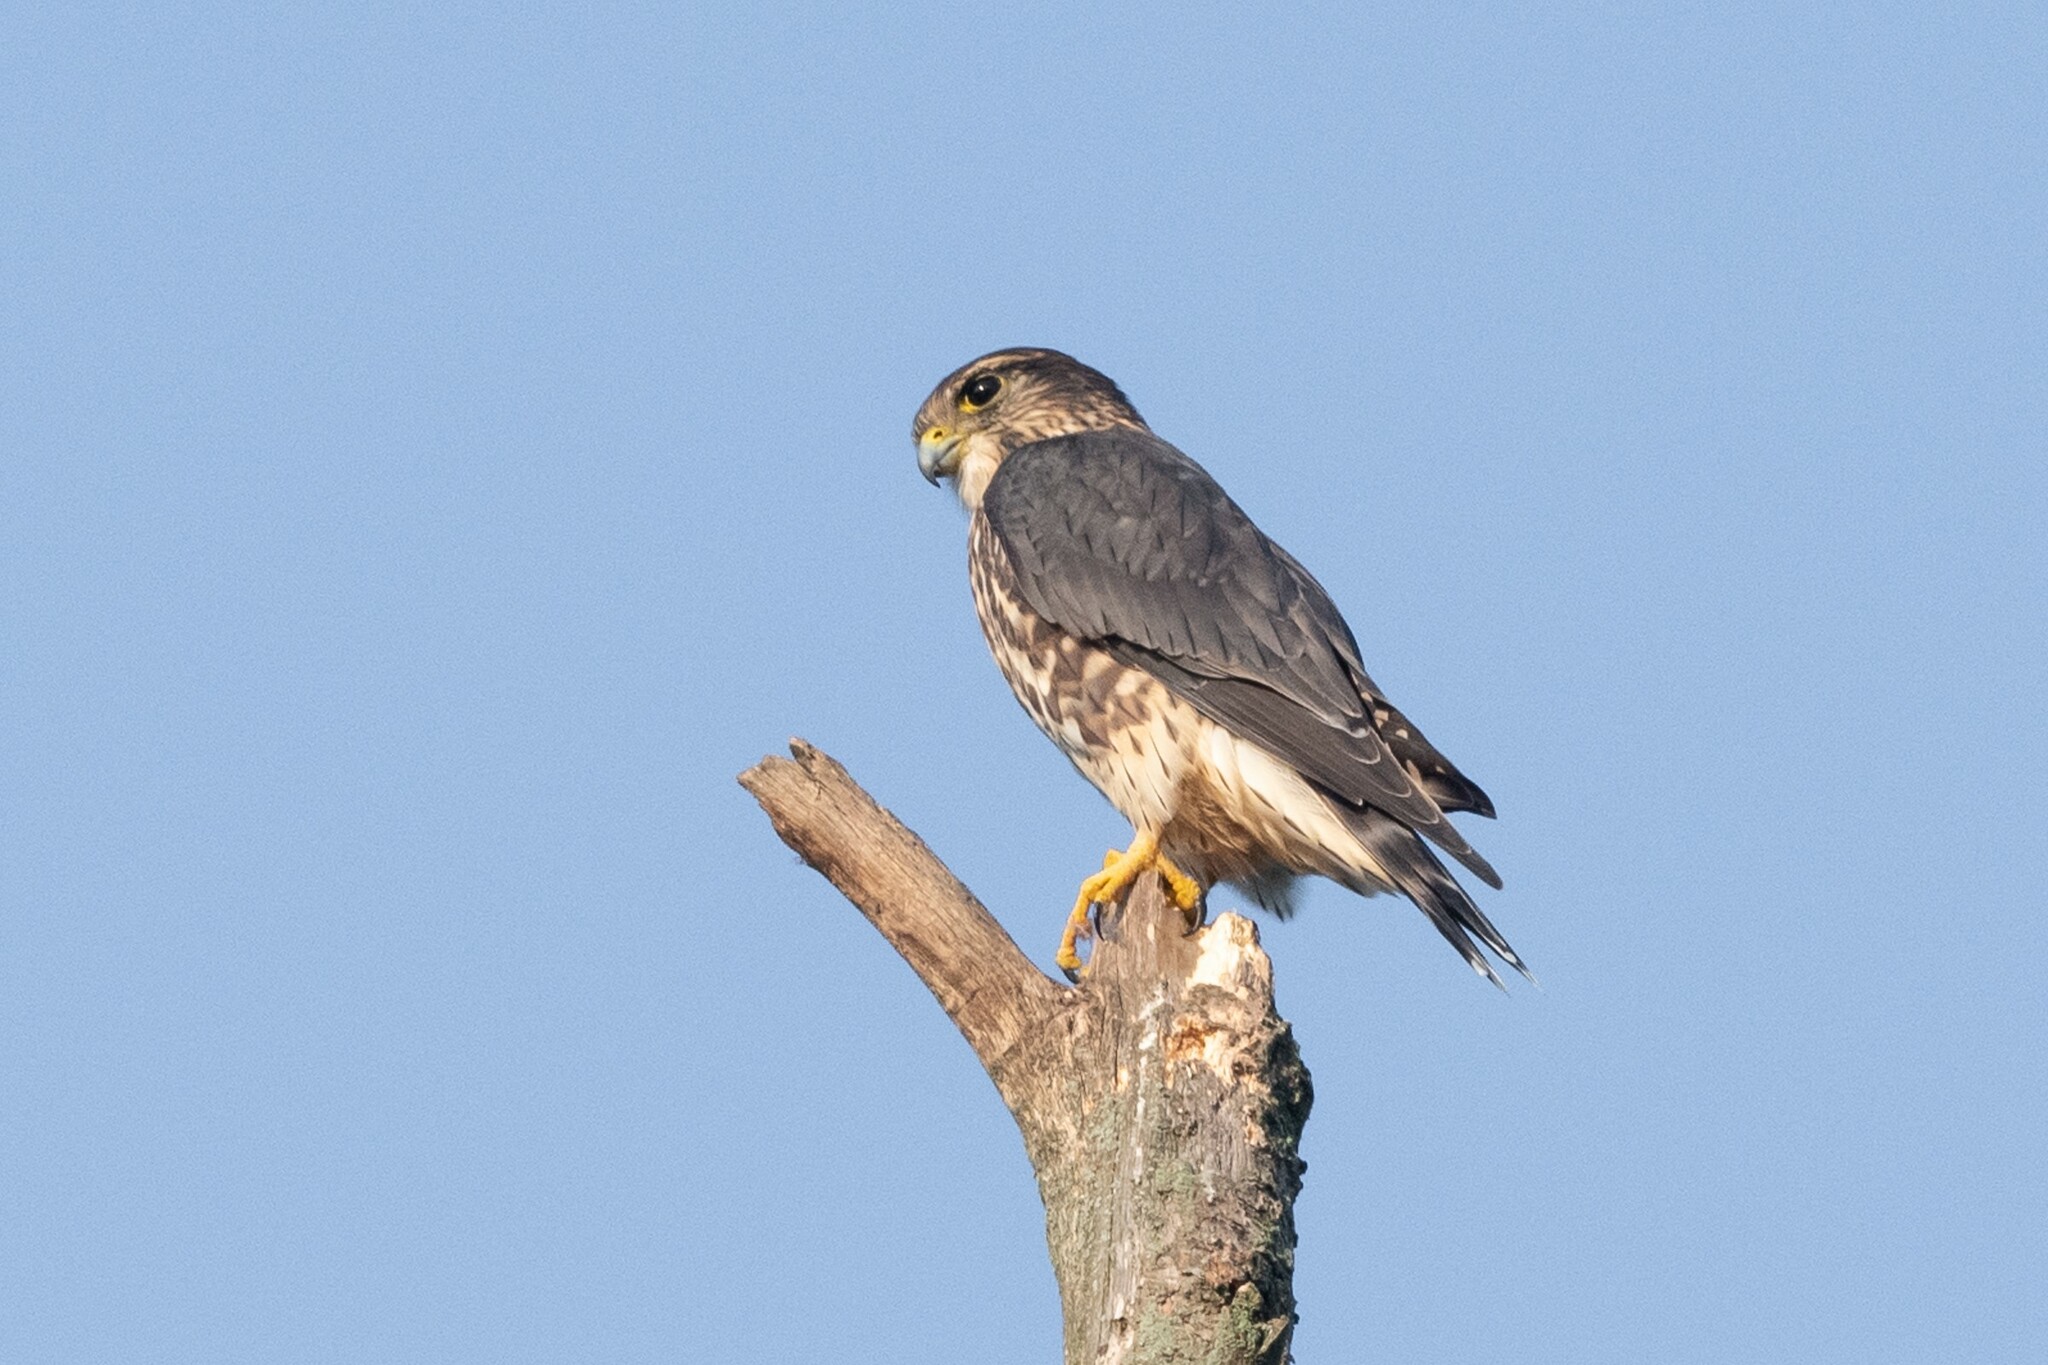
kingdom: Animalia
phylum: Chordata
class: Aves
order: Falconiformes
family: Falconidae
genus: Falco
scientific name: Falco columbarius
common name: Merlin
